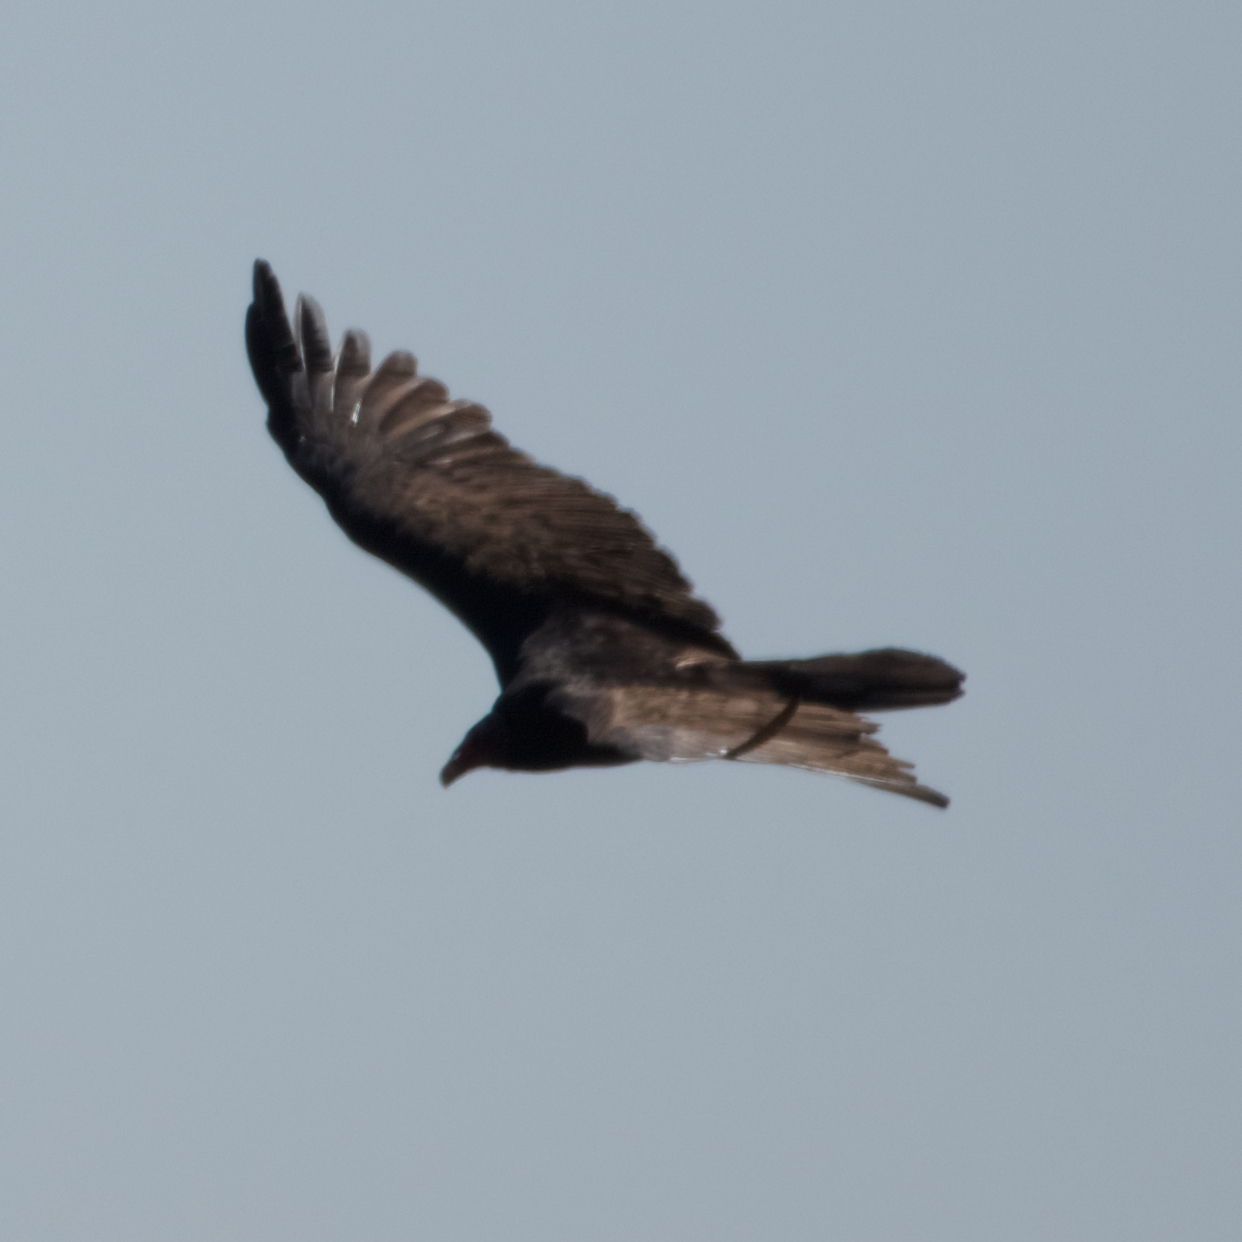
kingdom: Animalia
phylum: Chordata
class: Aves
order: Accipitriformes
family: Cathartidae
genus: Cathartes
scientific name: Cathartes aura
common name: Turkey vulture
